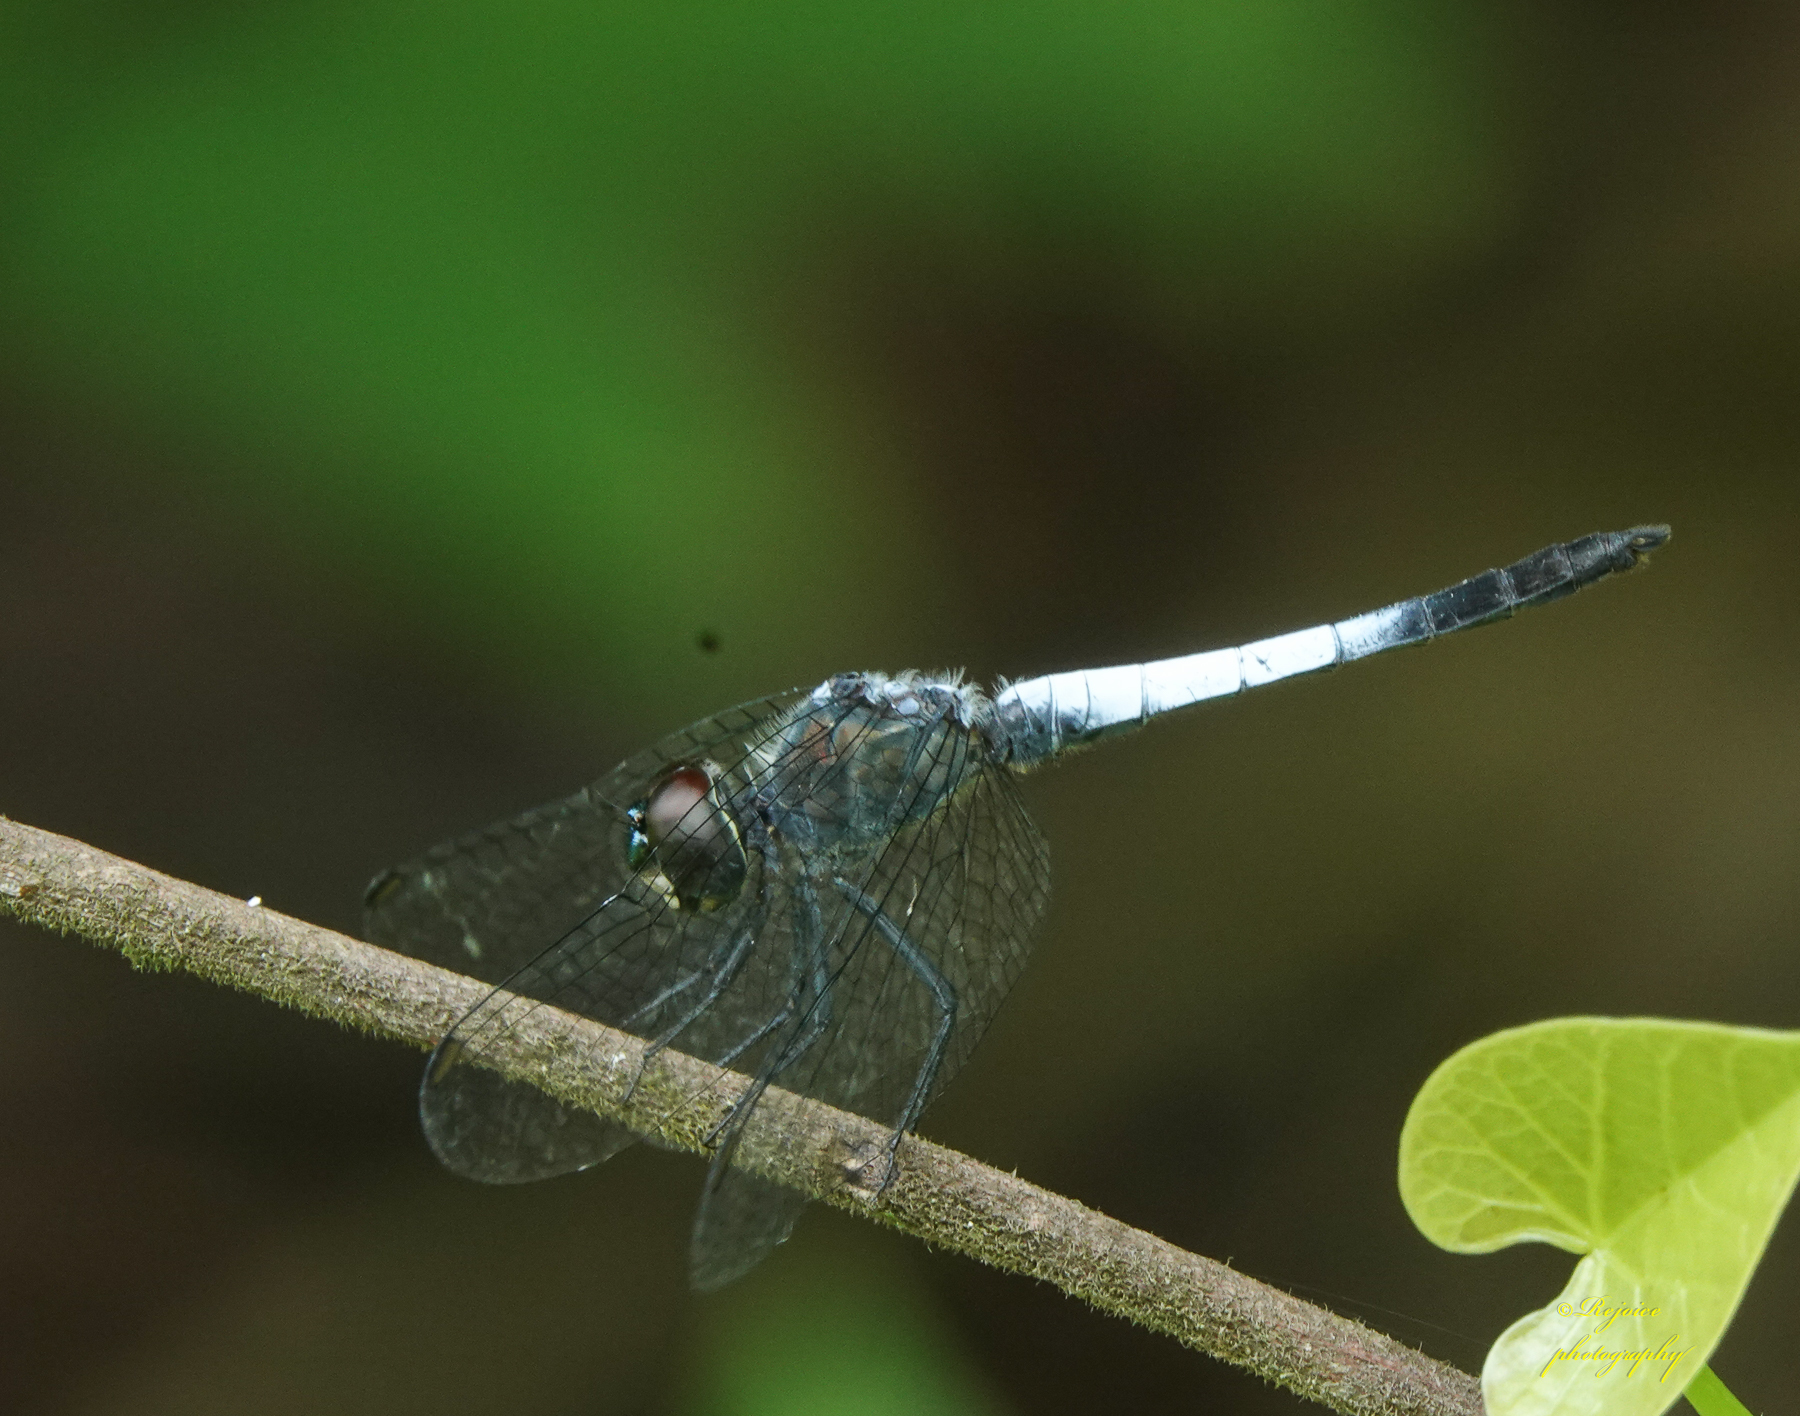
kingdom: Animalia
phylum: Arthropoda
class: Insecta
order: Odonata
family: Libellulidae
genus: Brachydiplax
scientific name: Brachydiplax sobrina
